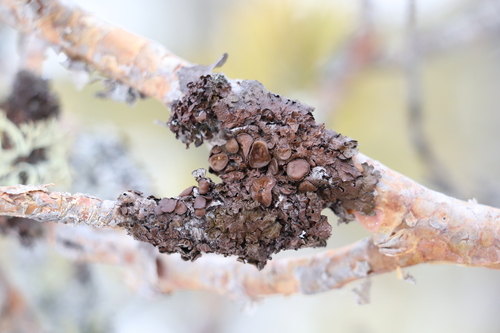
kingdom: Fungi
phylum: Ascomycota
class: Lecanoromycetes
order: Lecanorales
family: Parmeliaceae
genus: Melanohalea
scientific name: Melanohalea olivacea
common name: Spotted camouflage lichen
